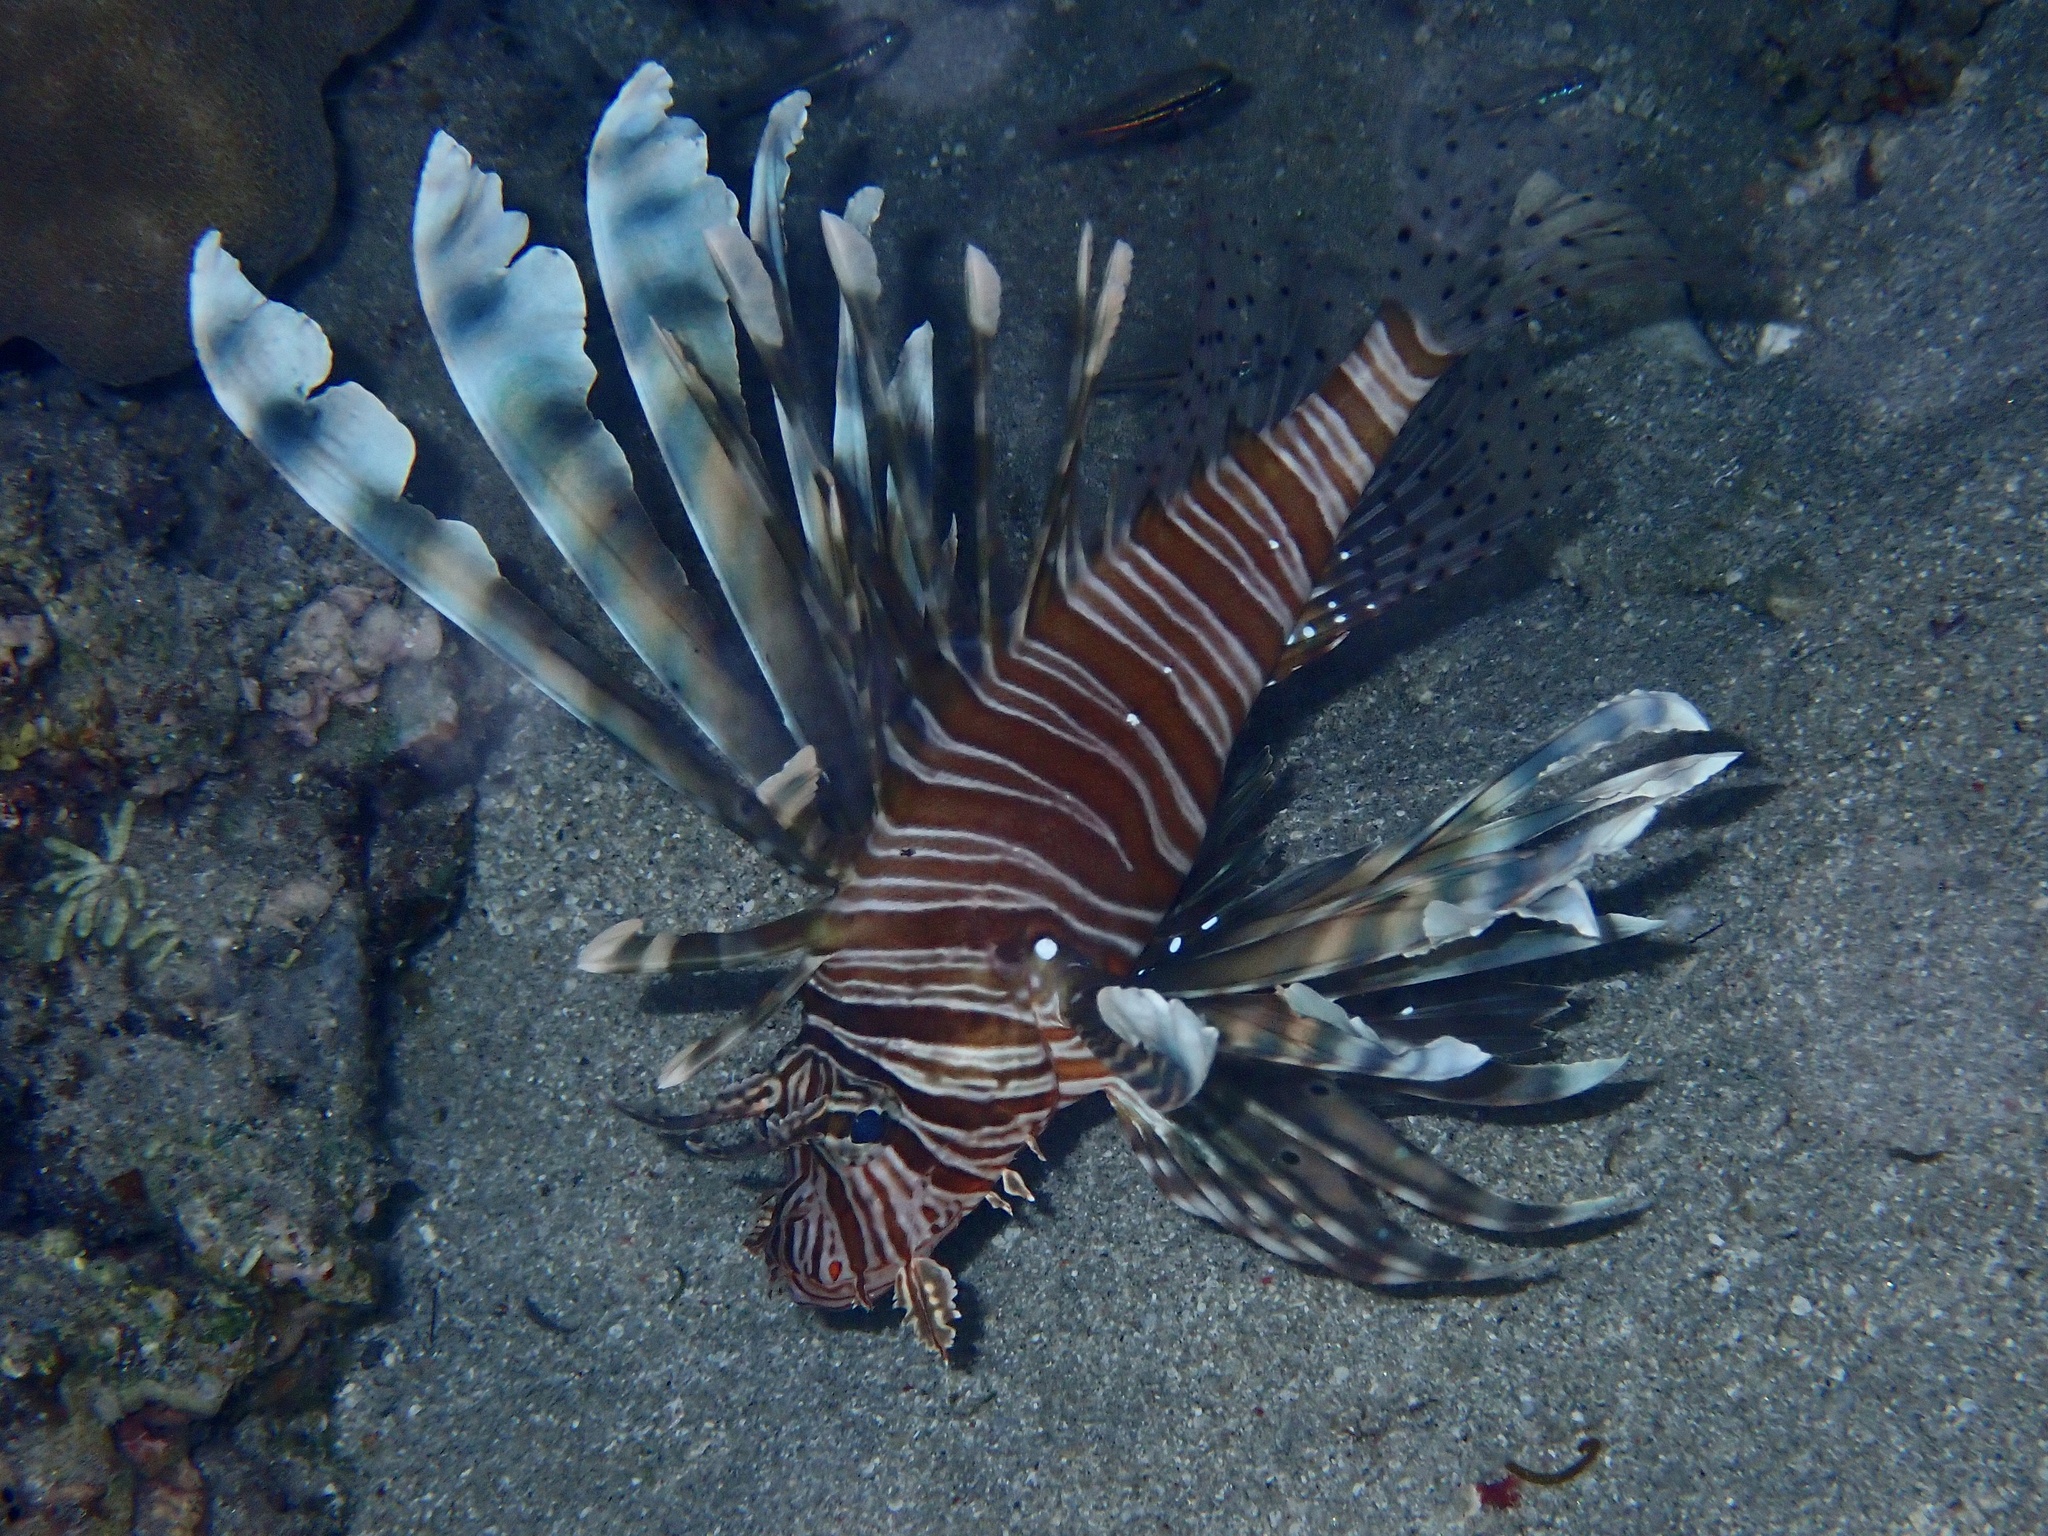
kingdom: Animalia
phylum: Chordata
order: Scorpaeniformes
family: Scorpaenidae
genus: Pterois
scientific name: Pterois miles
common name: Devil firefish
